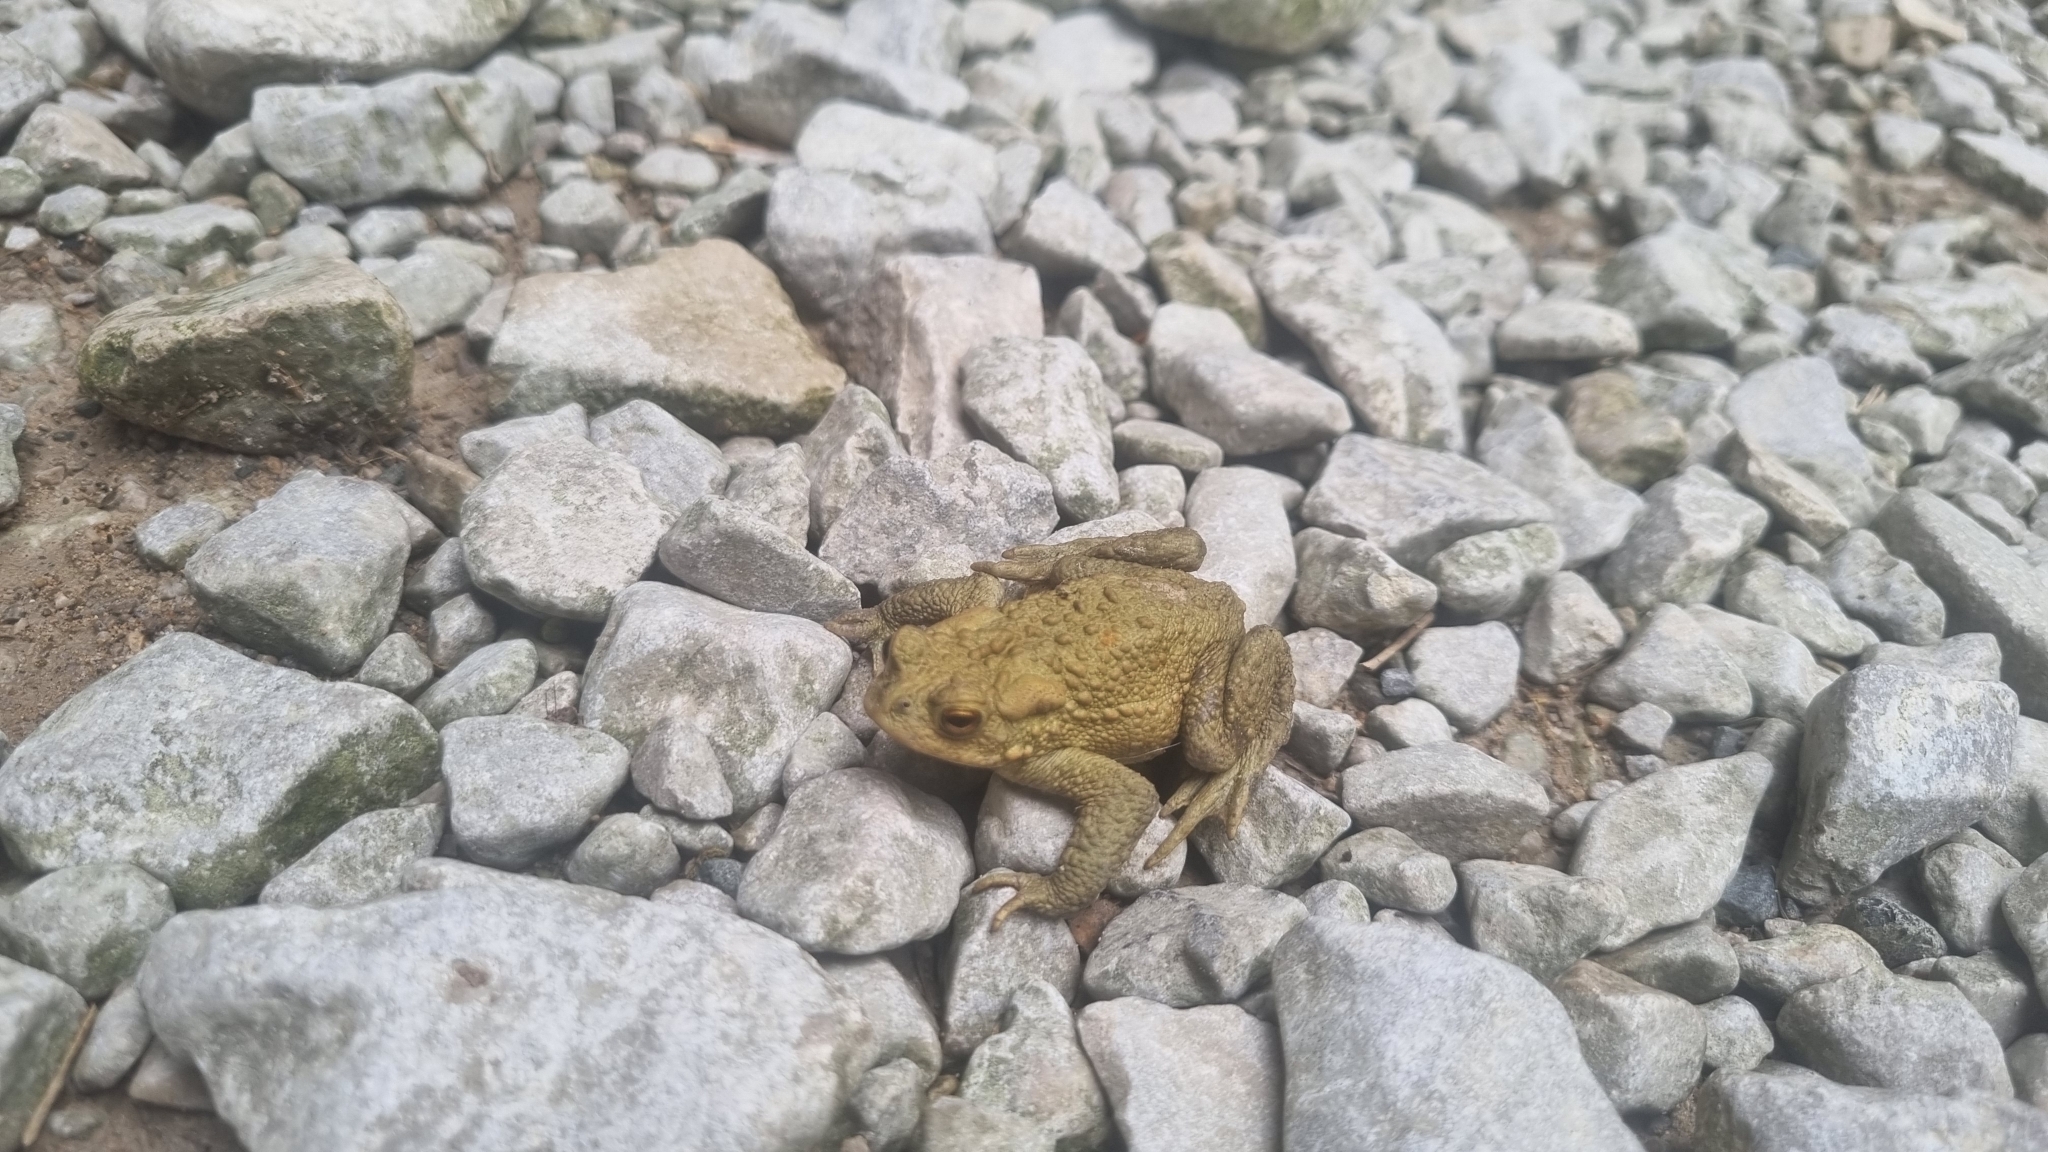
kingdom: Animalia
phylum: Chordata
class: Amphibia
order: Anura
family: Bufonidae
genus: Bufo
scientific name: Bufo bufo
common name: Common toad
